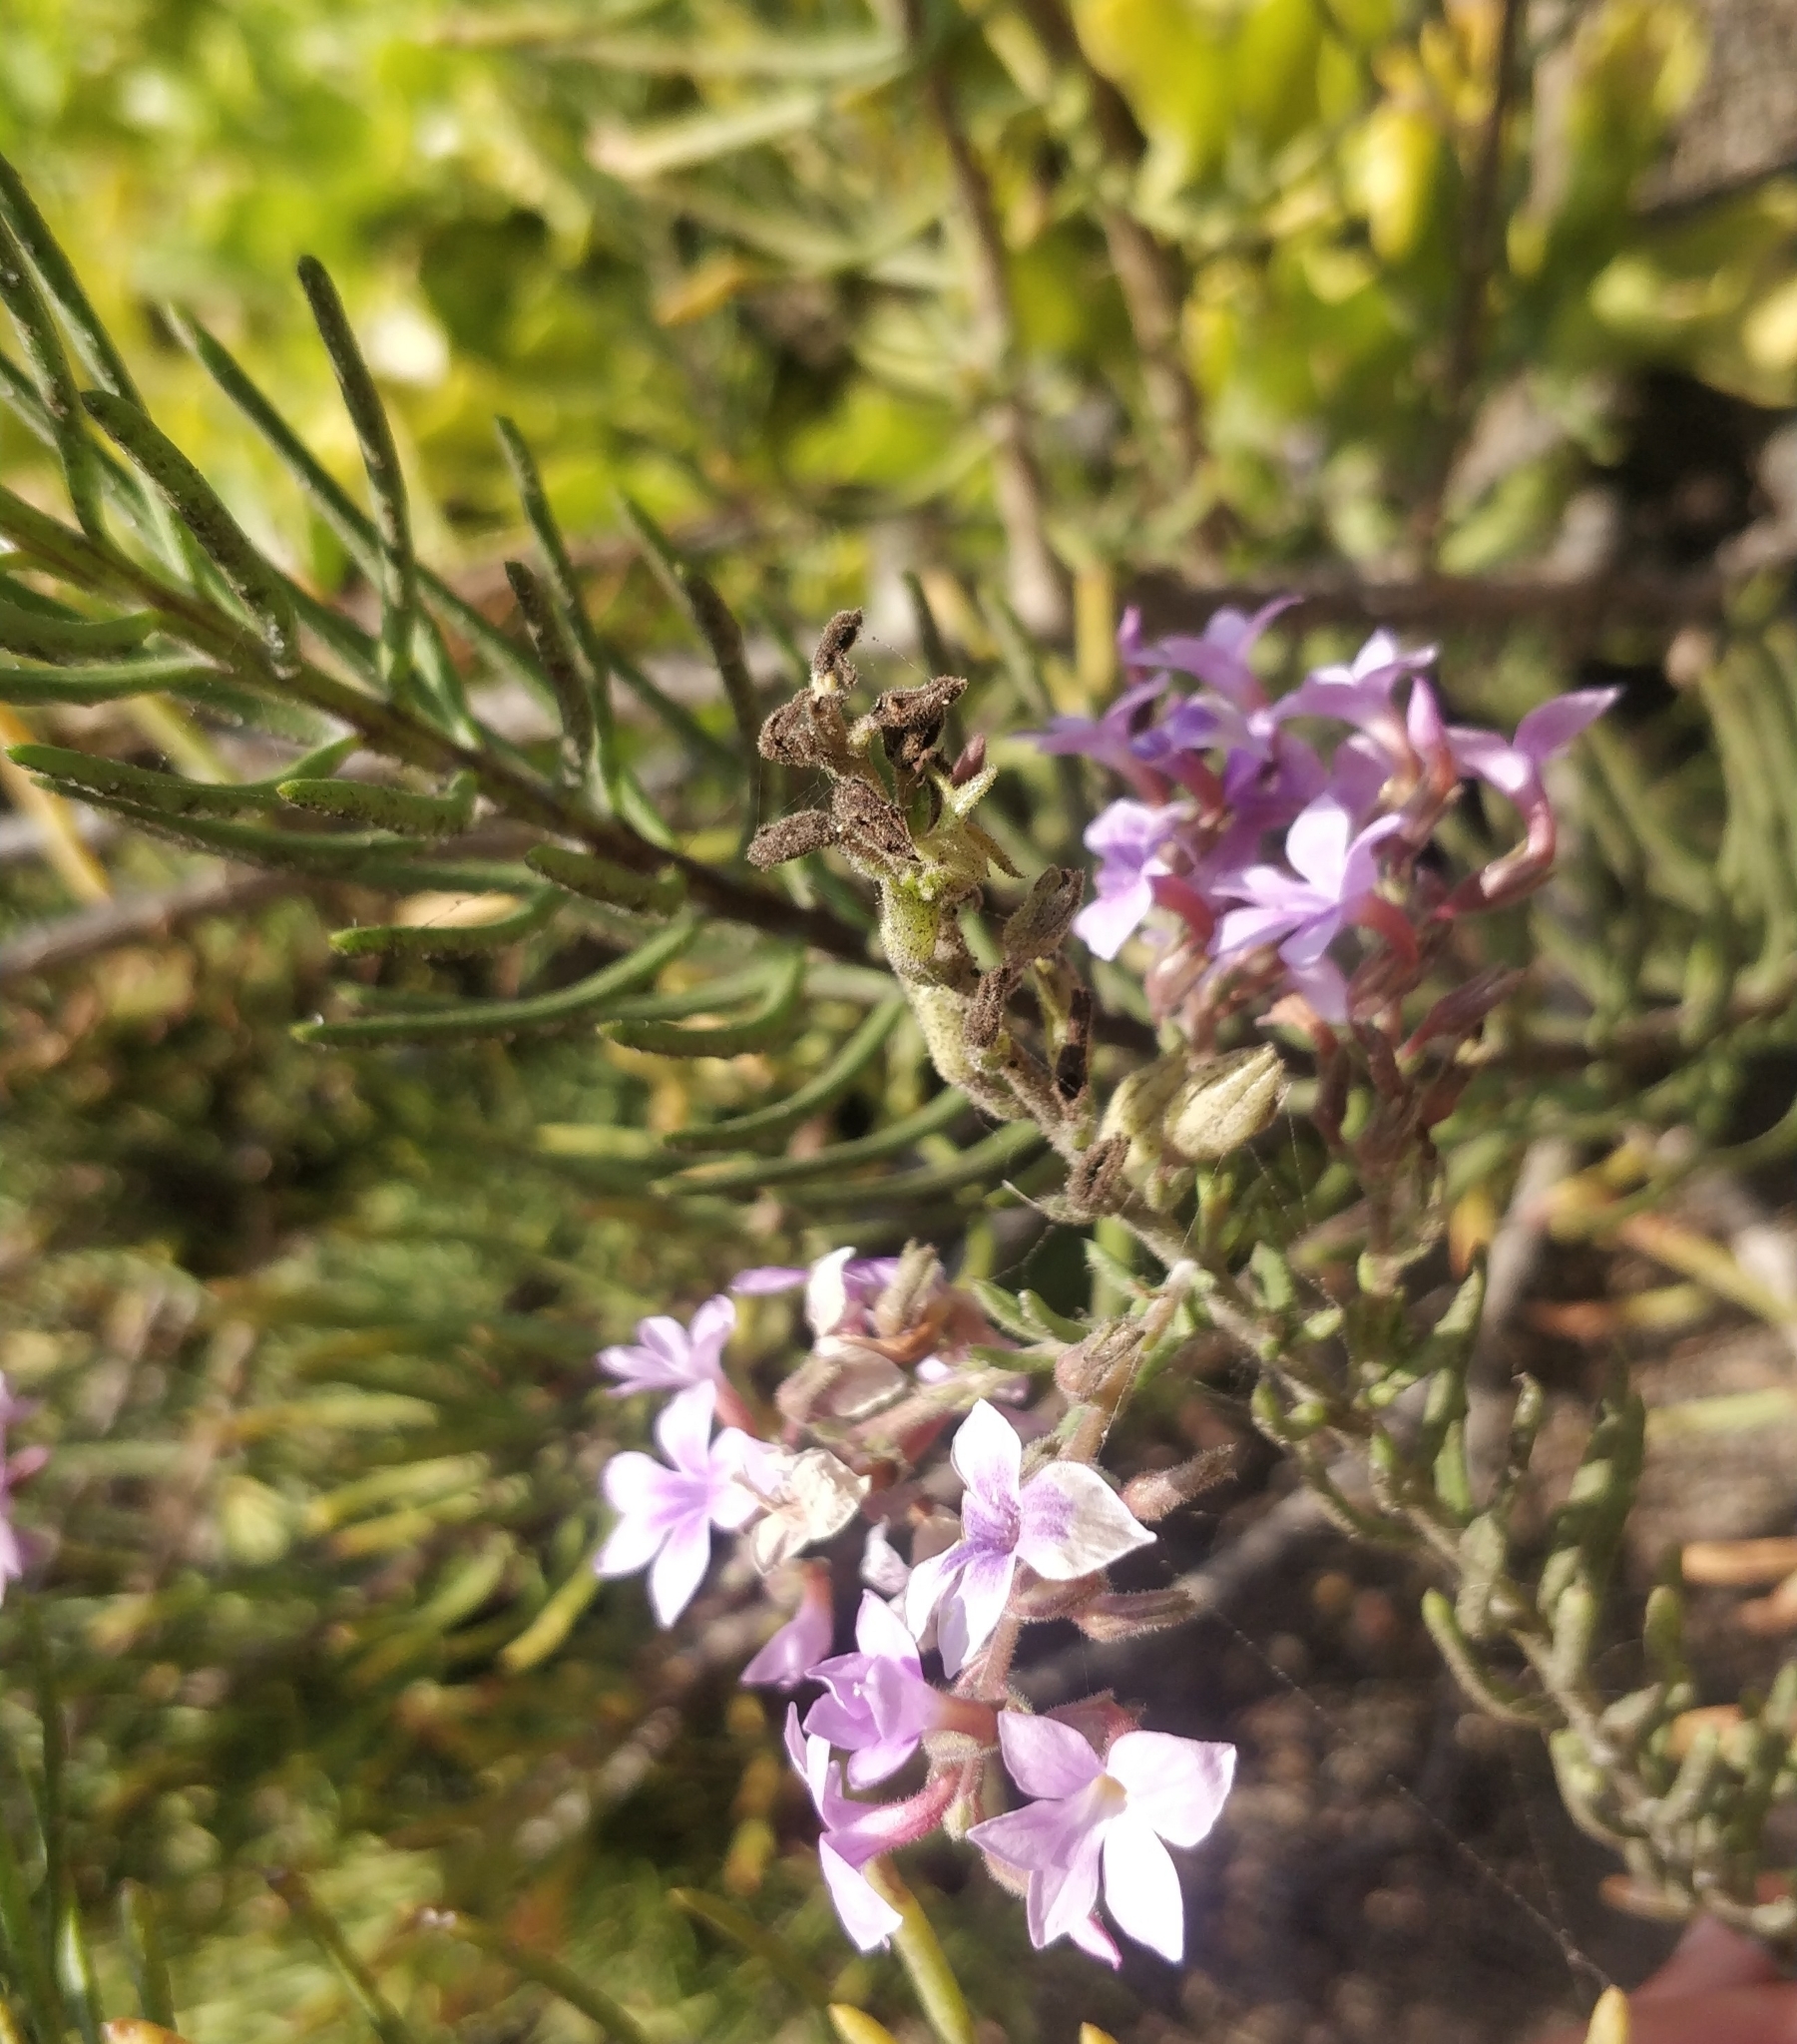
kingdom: Plantae
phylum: Tracheophyta
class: Magnoliopsida
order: Lamiales
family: Plantaginaceae
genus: Campylanthus
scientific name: Campylanthus salsoloides
